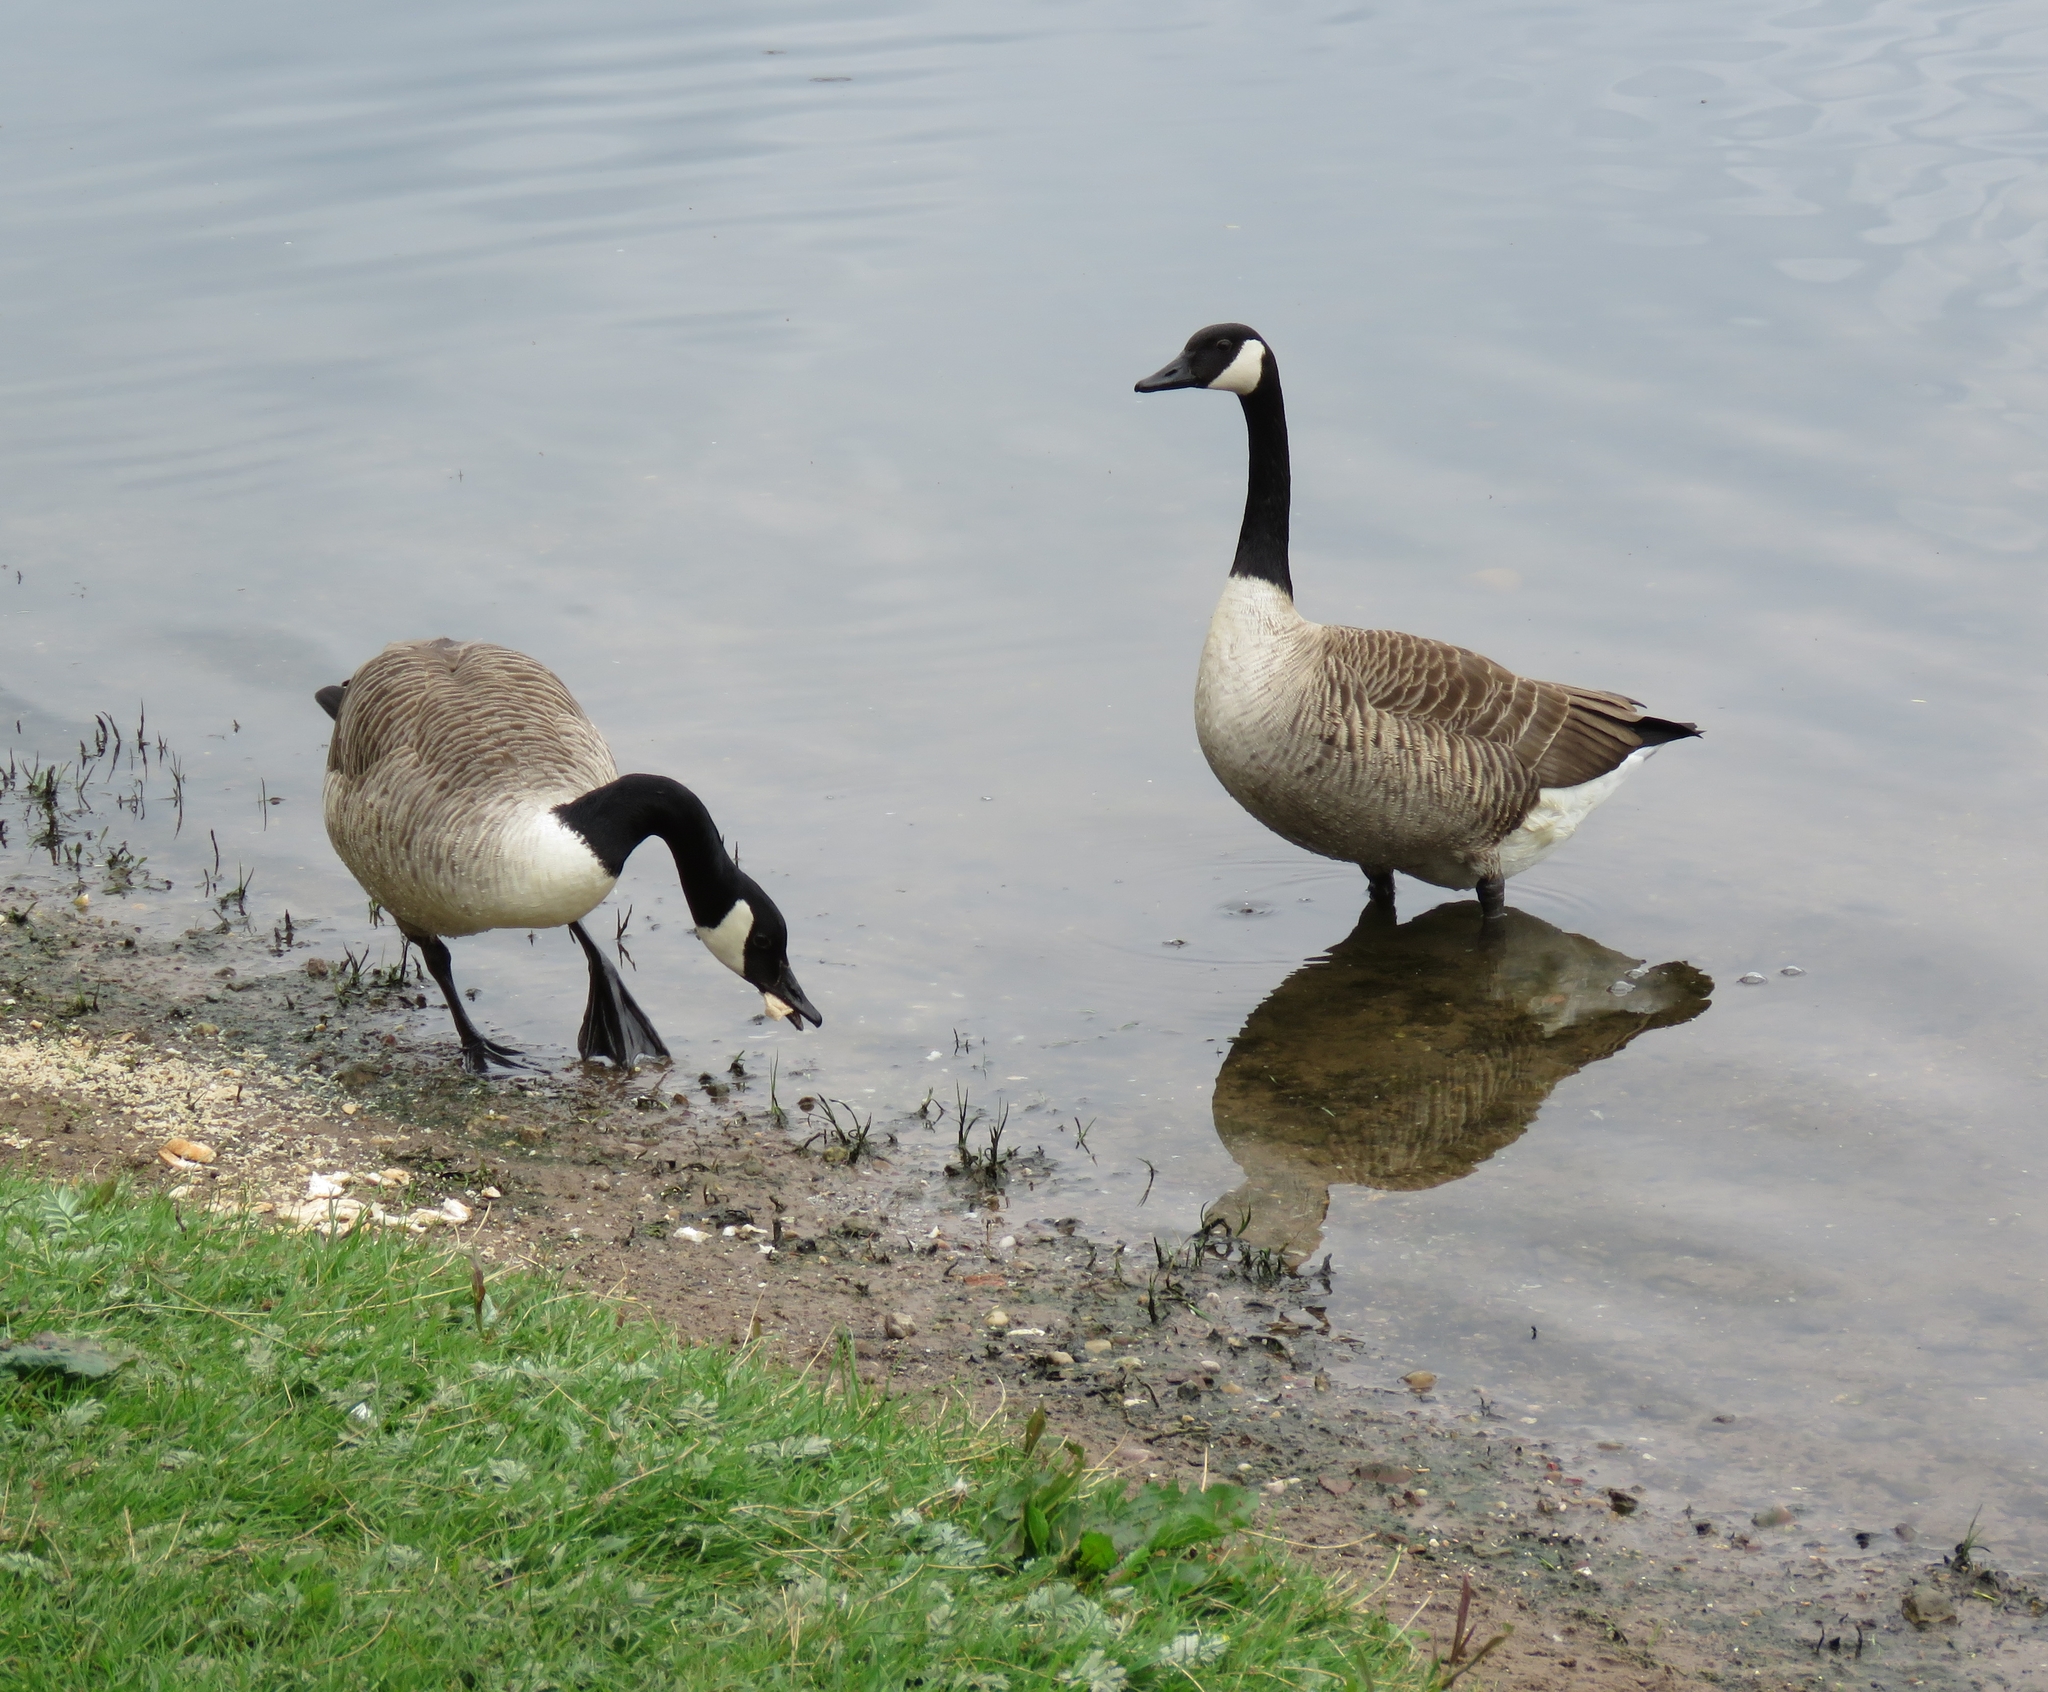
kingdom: Animalia
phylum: Chordata
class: Aves
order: Anseriformes
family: Anatidae
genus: Branta
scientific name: Branta canadensis
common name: Canada goose
